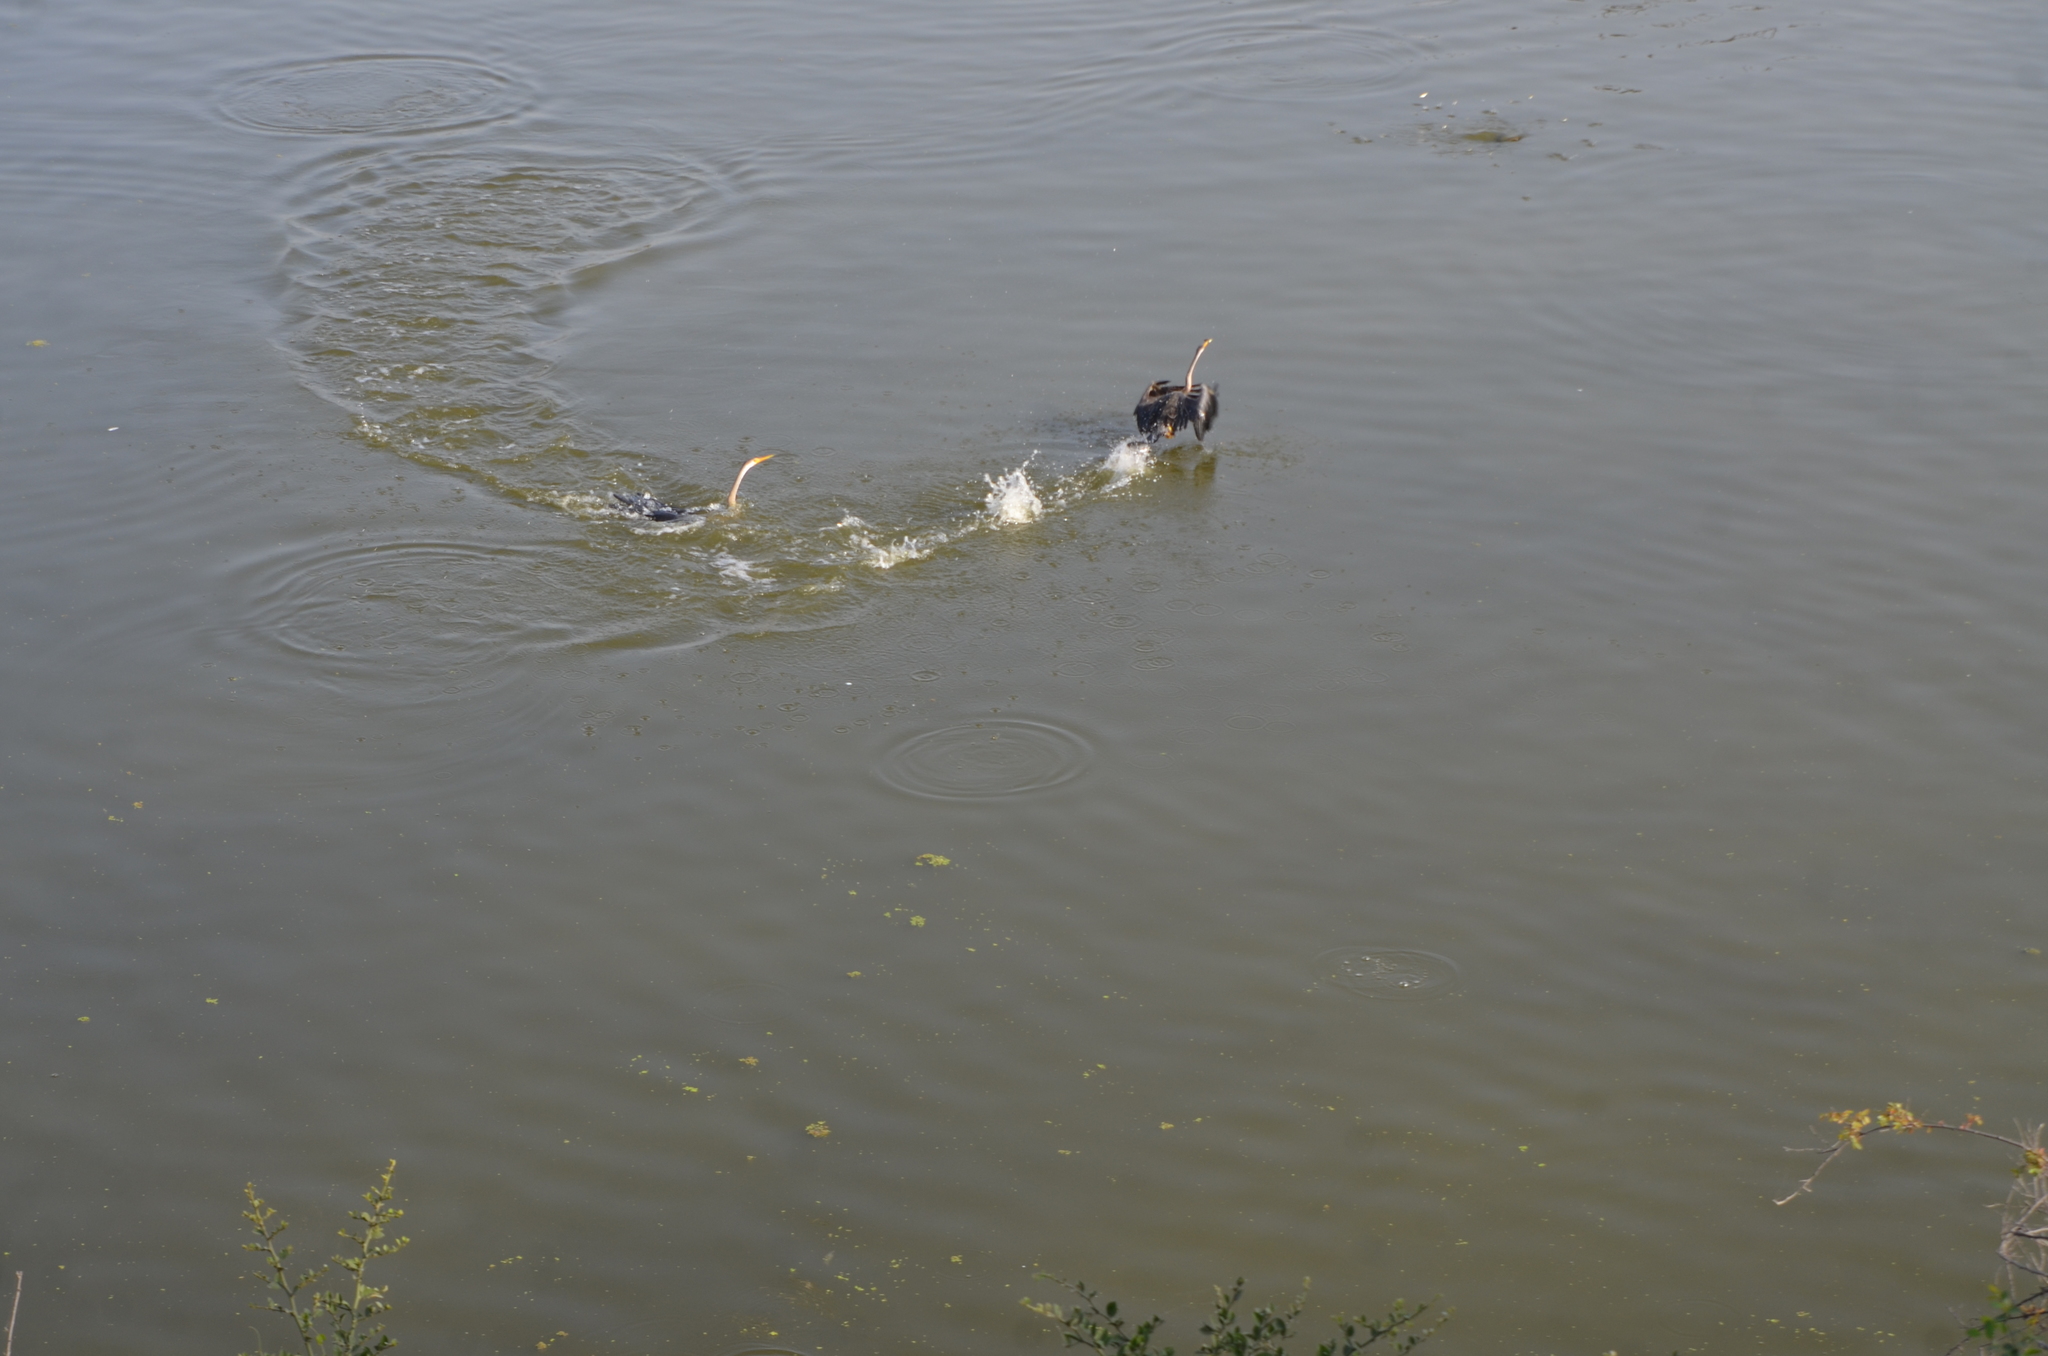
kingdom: Animalia
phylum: Chordata
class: Aves
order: Suliformes
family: Anhingidae
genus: Anhinga
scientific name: Anhinga melanogaster
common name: Oriental darter
